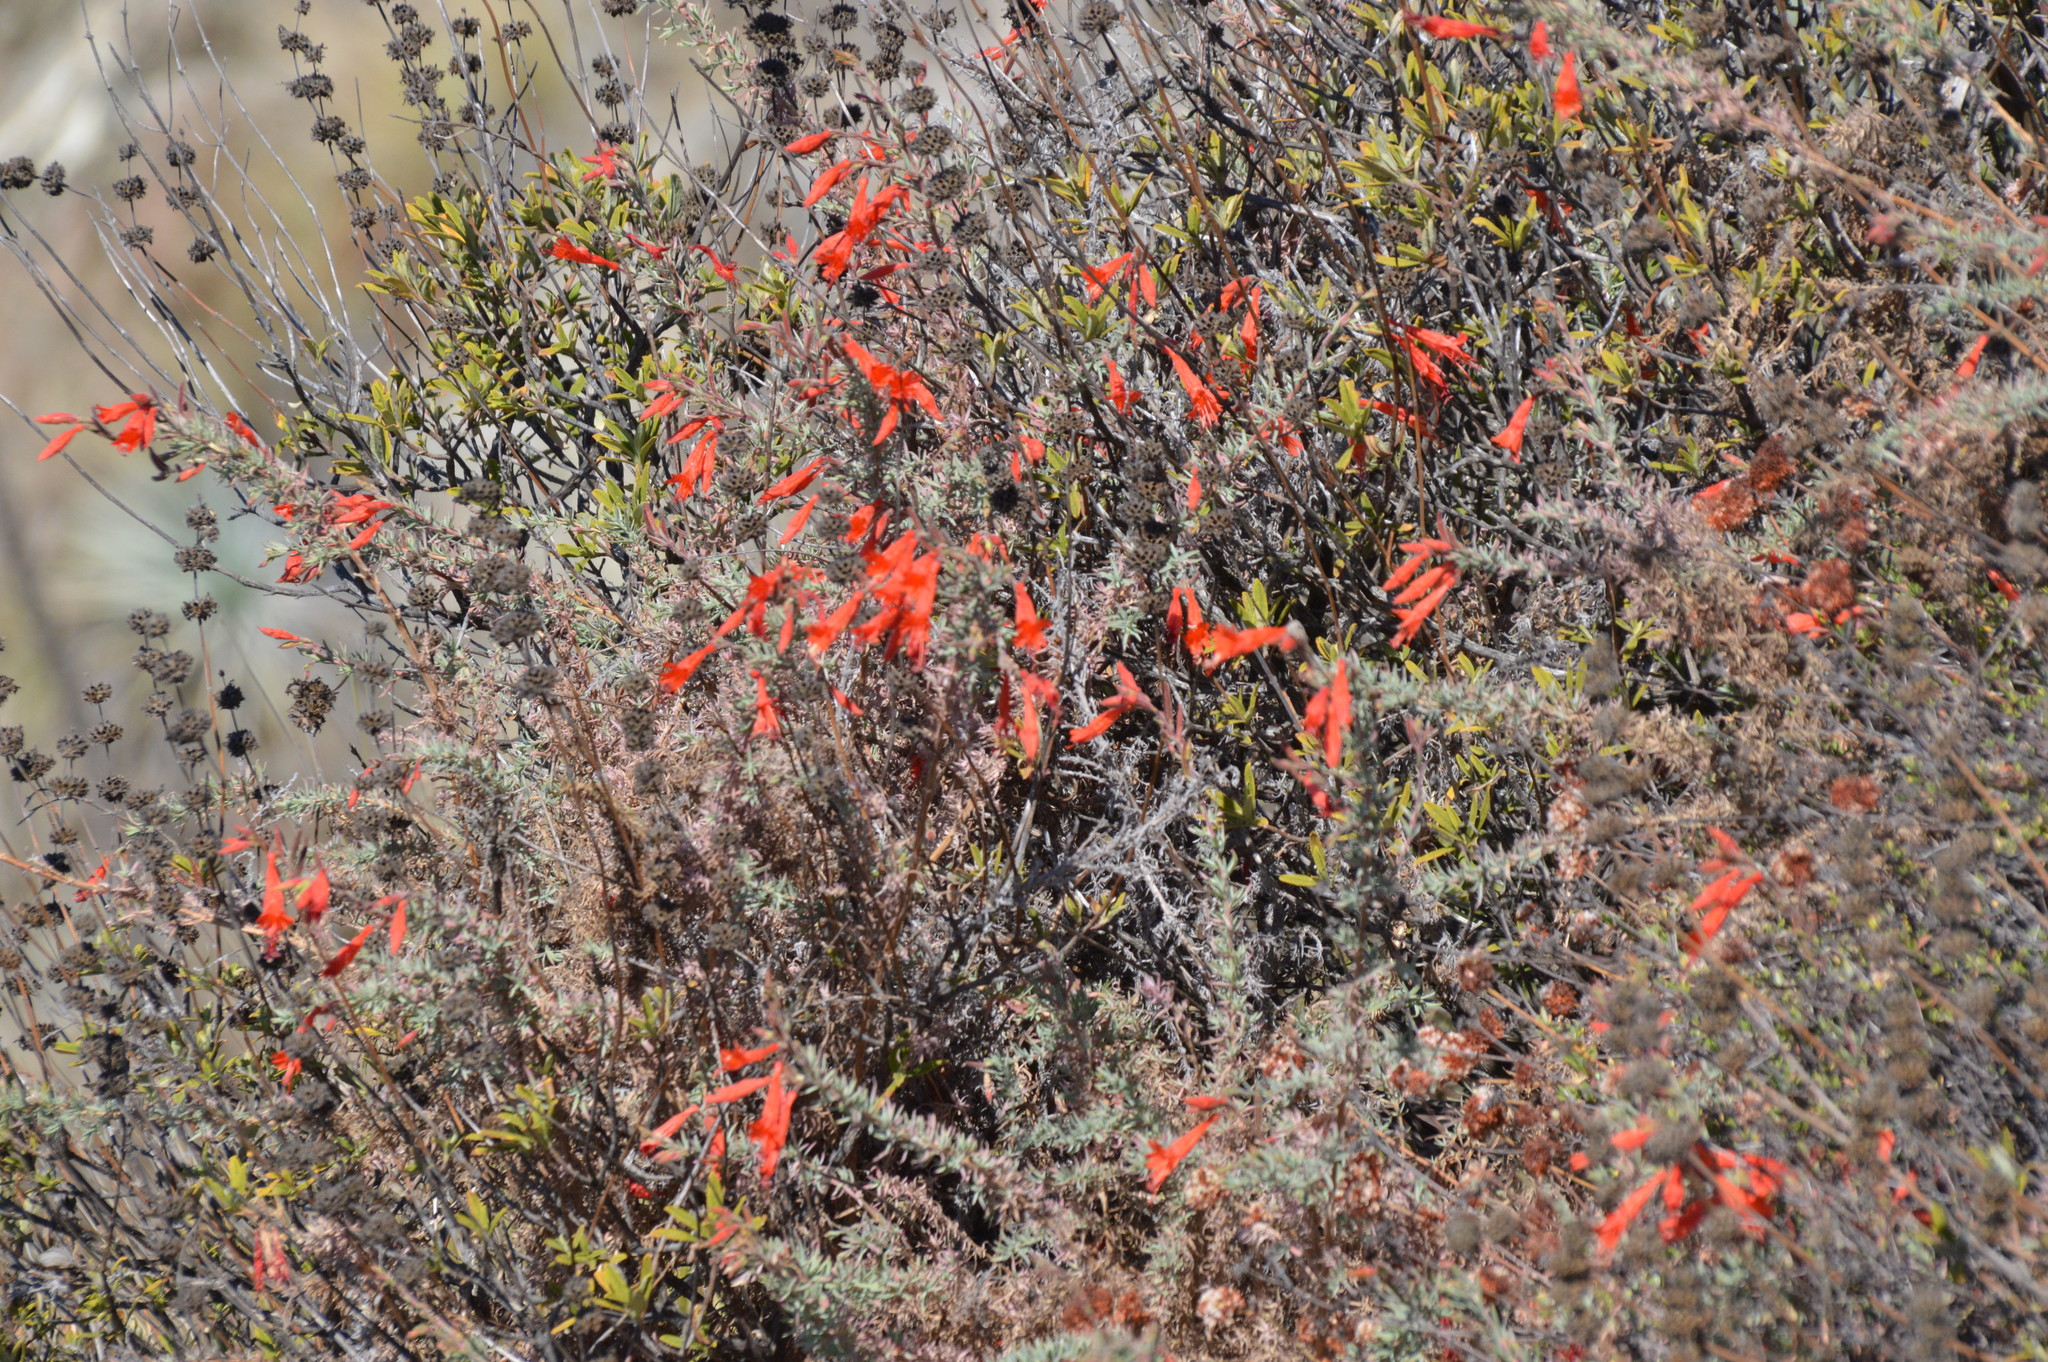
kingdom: Plantae
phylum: Tracheophyta
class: Magnoliopsida
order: Myrtales
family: Onagraceae
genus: Epilobium
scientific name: Epilobium canum
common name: California-fuchsia
